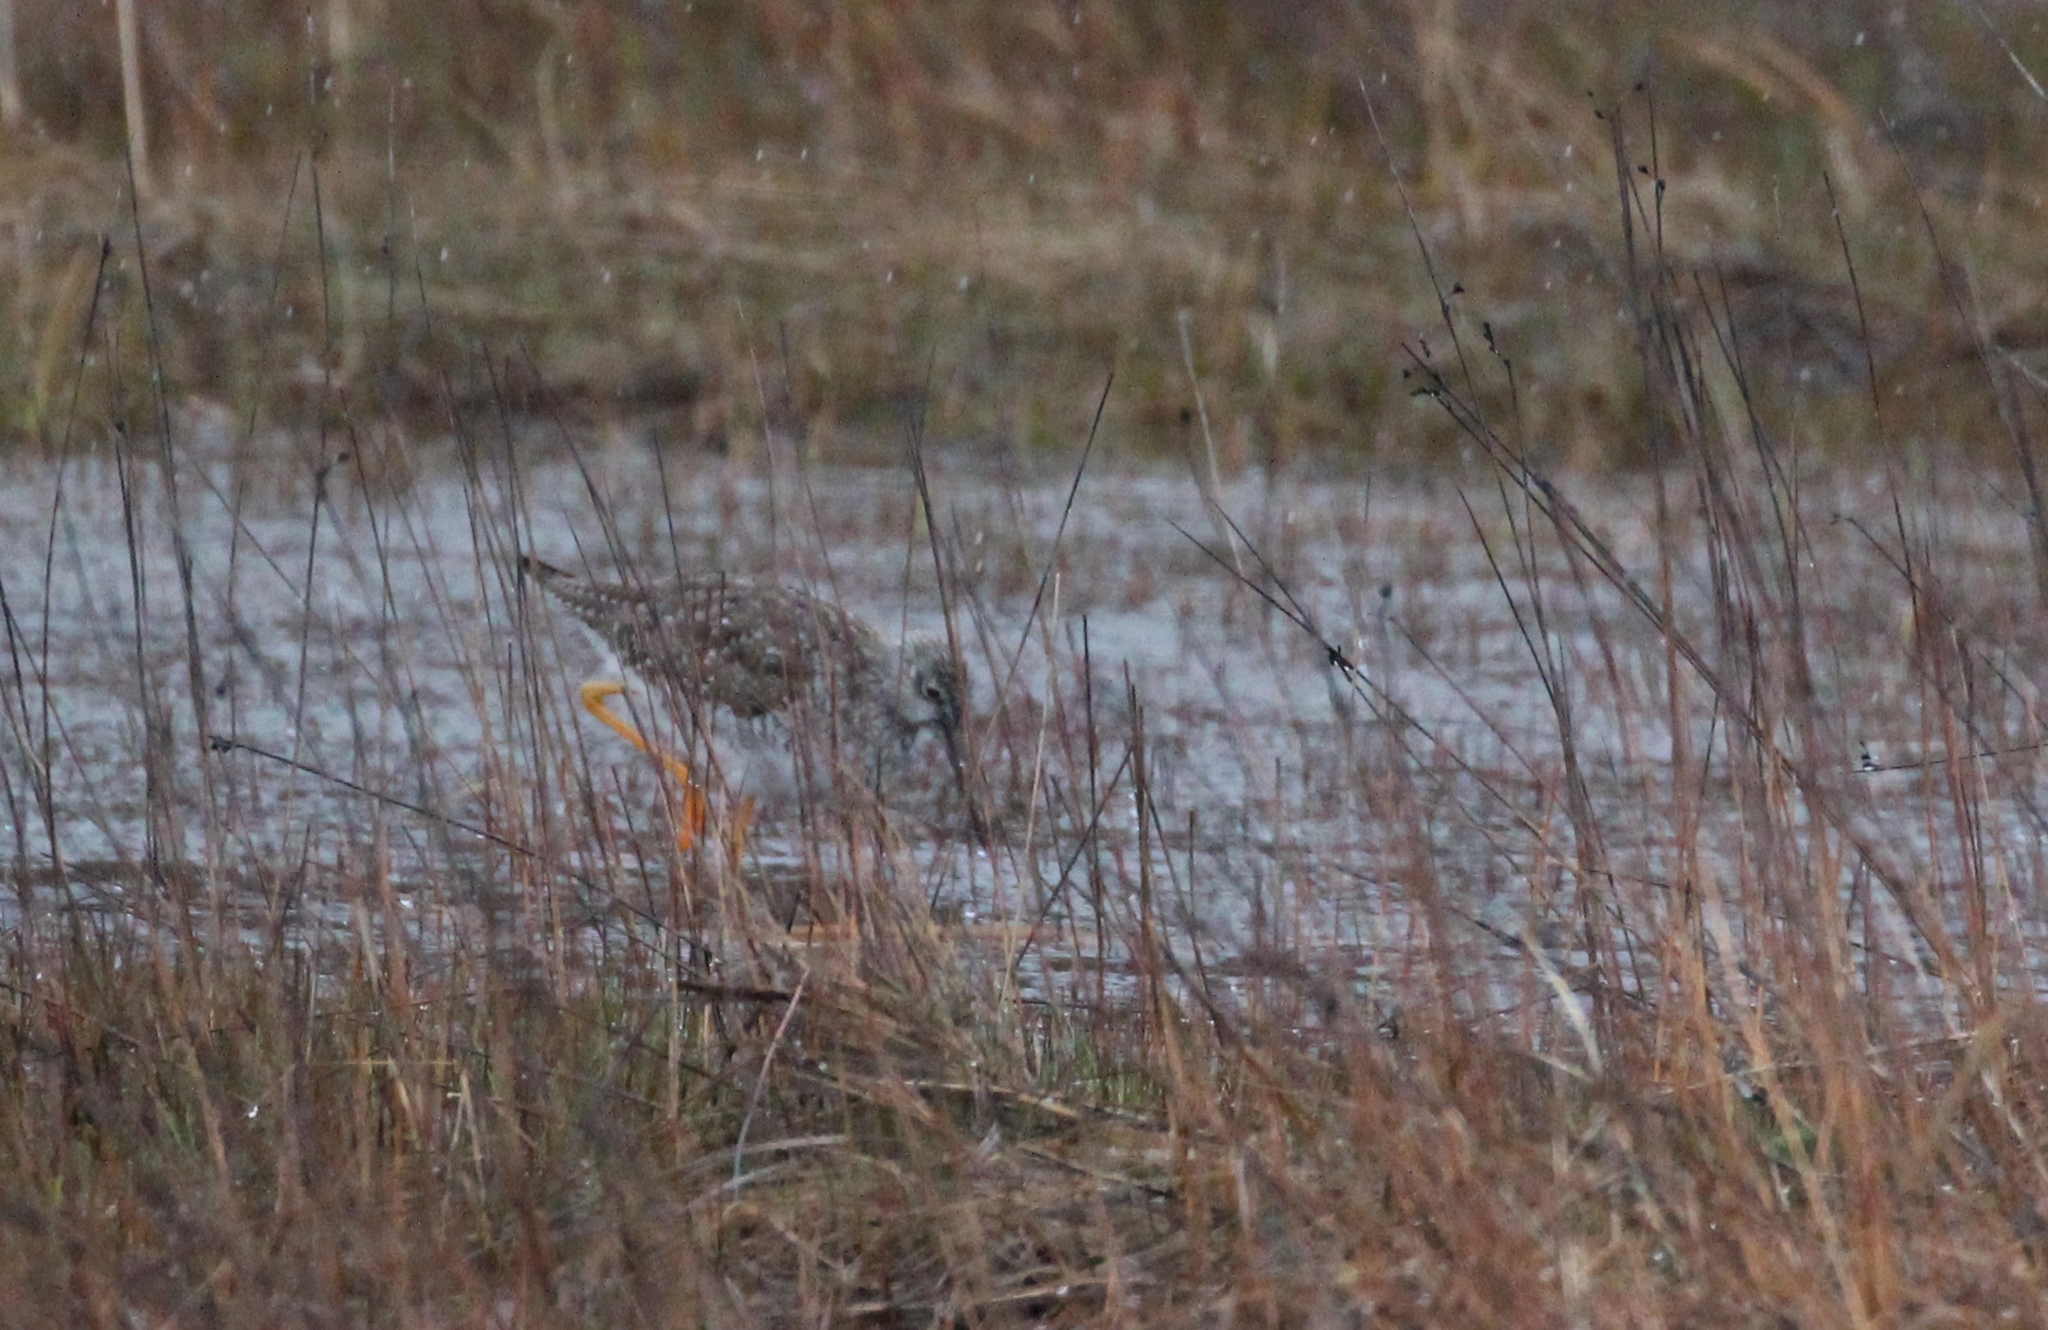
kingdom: Animalia
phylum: Chordata
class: Aves
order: Charadriiformes
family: Scolopacidae
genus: Tringa
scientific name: Tringa melanoleuca
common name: Greater yellowlegs
